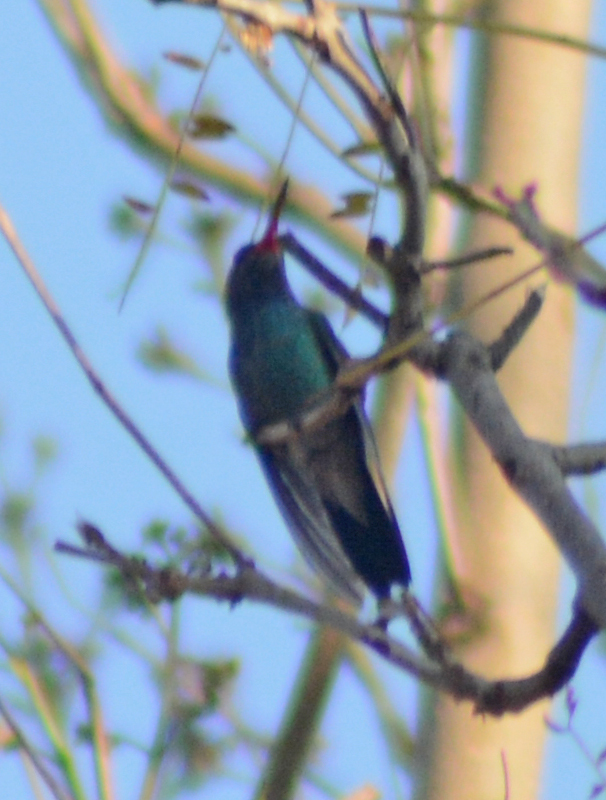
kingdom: Animalia
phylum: Chordata
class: Aves
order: Apodiformes
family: Trochilidae
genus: Cynanthus
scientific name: Cynanthus latirostris
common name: Broad-billed hummingbird
